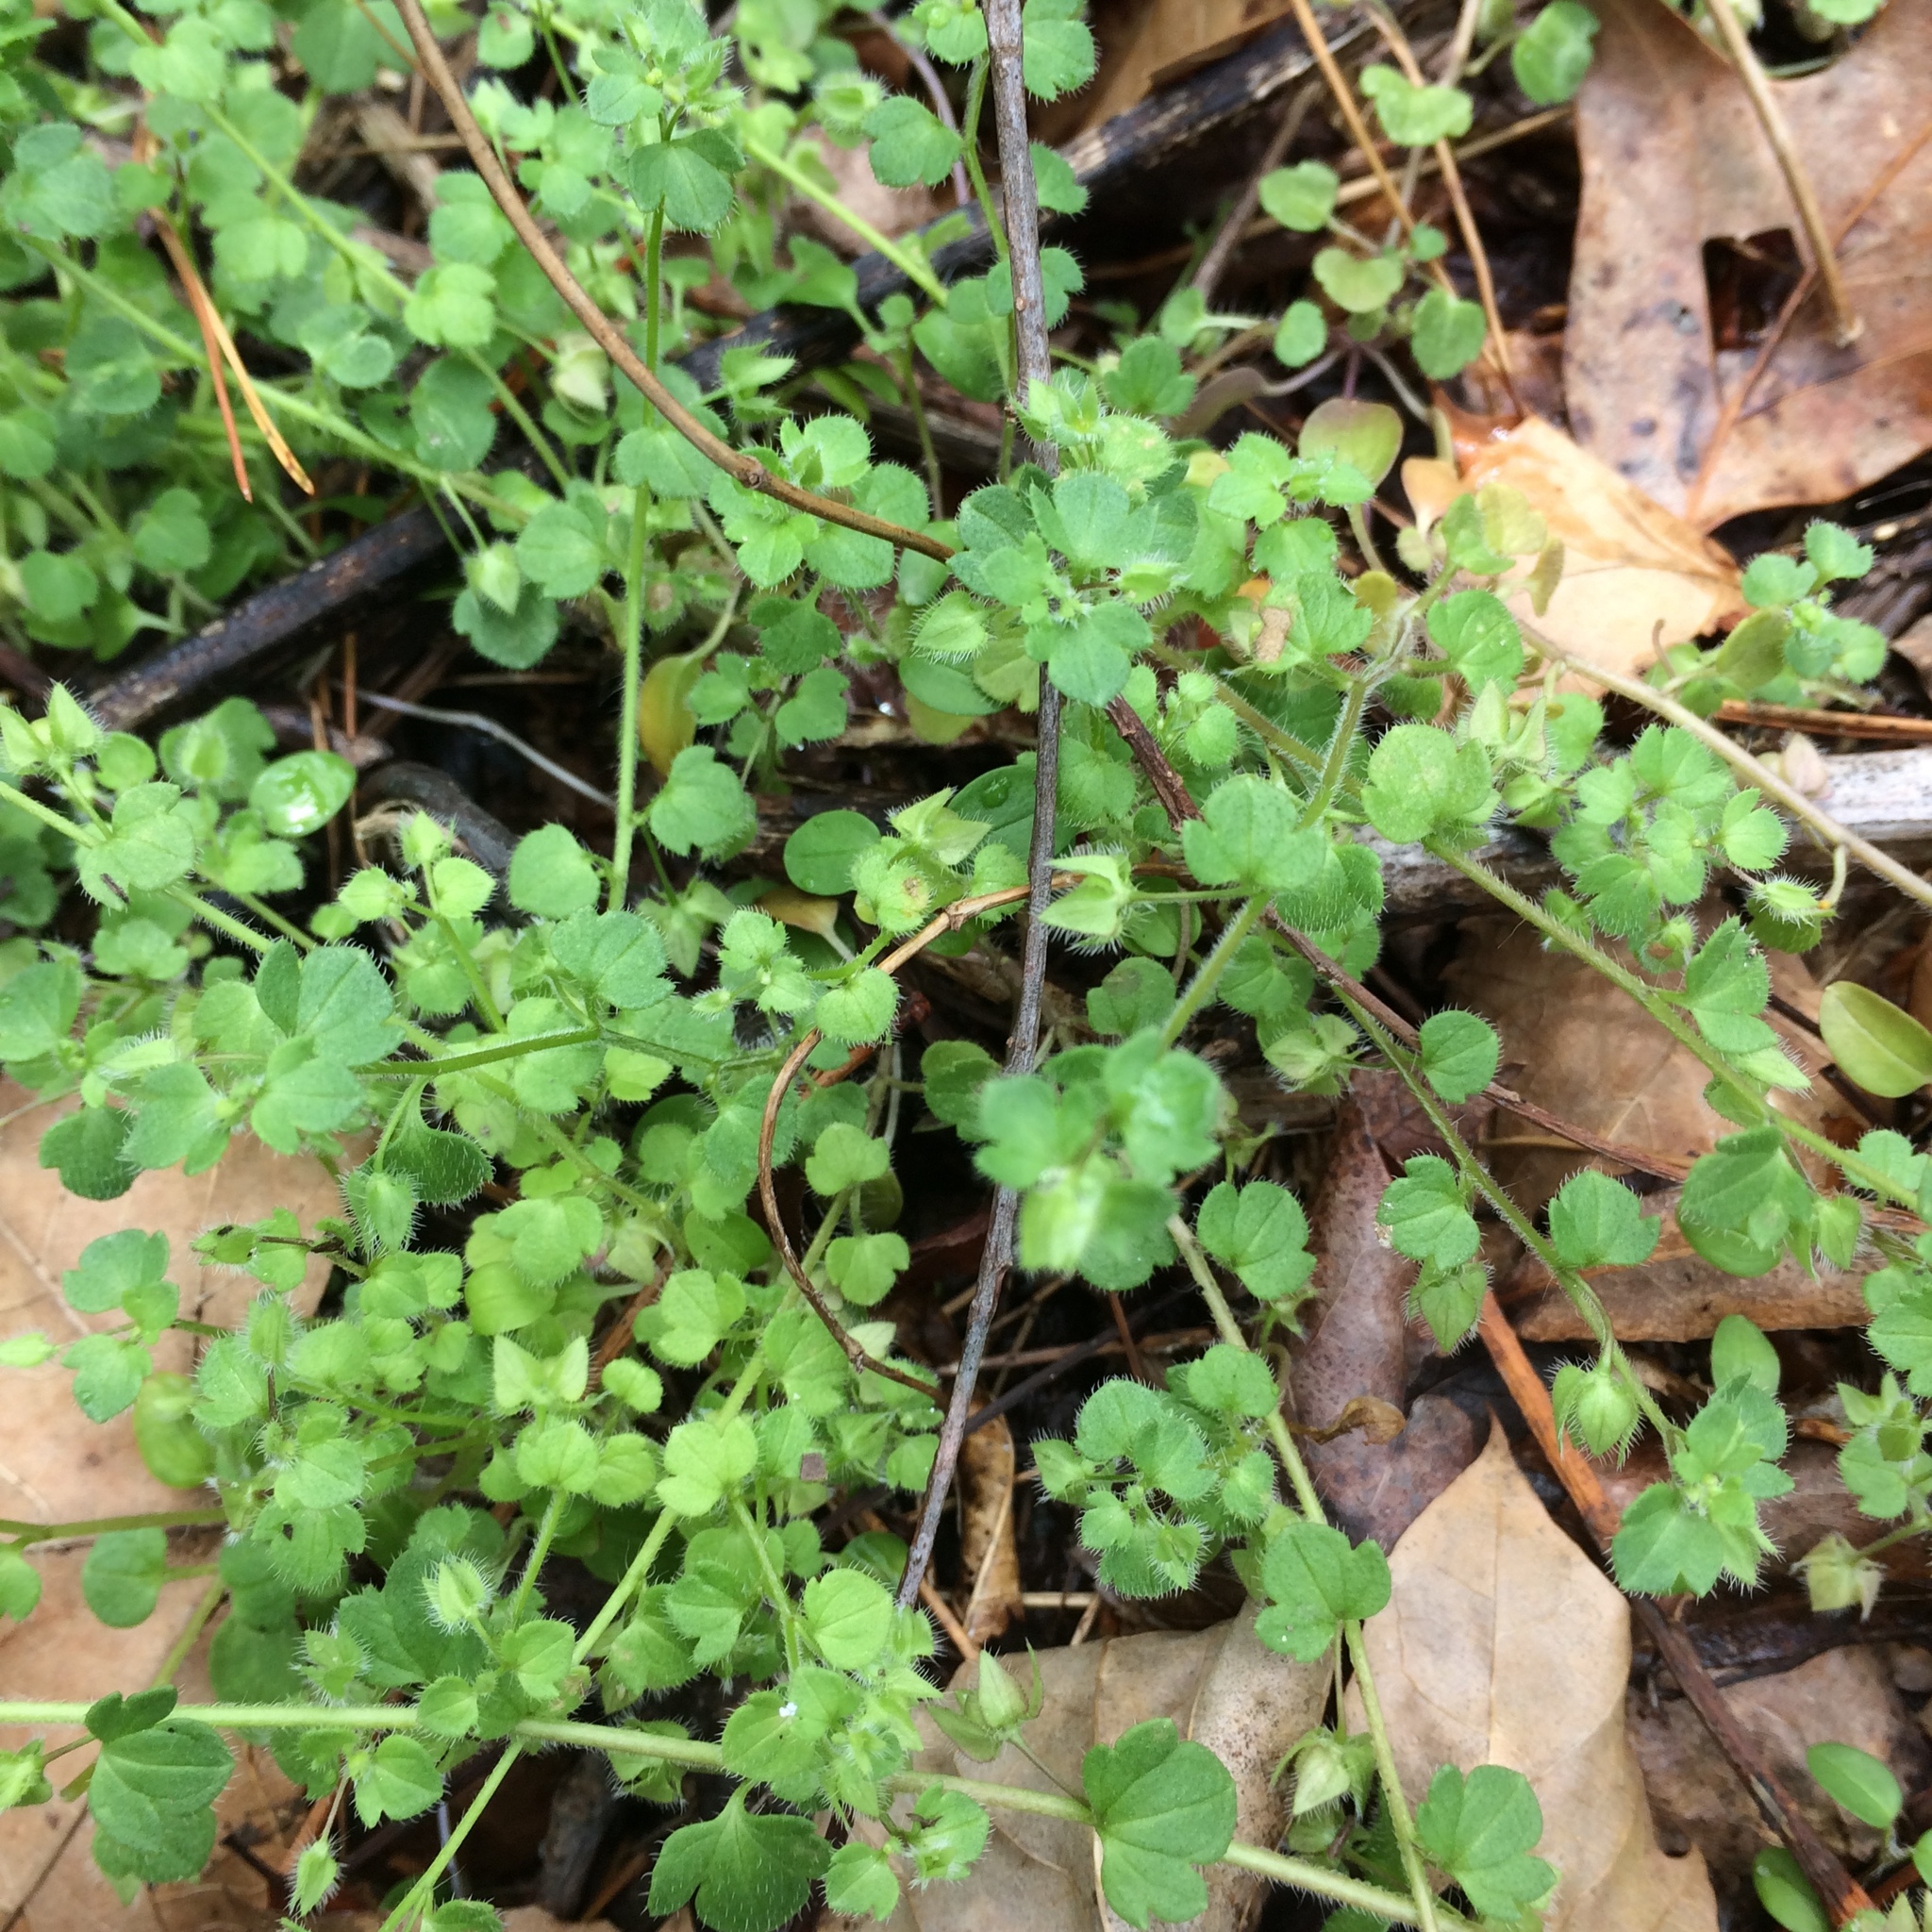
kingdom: Plantae
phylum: Tracheophyta
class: Magnoliopsida
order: Lamiales
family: Plantaginaceae
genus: Veronica
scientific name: Veronica hederifolia
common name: Ivy-leaved speedwell
